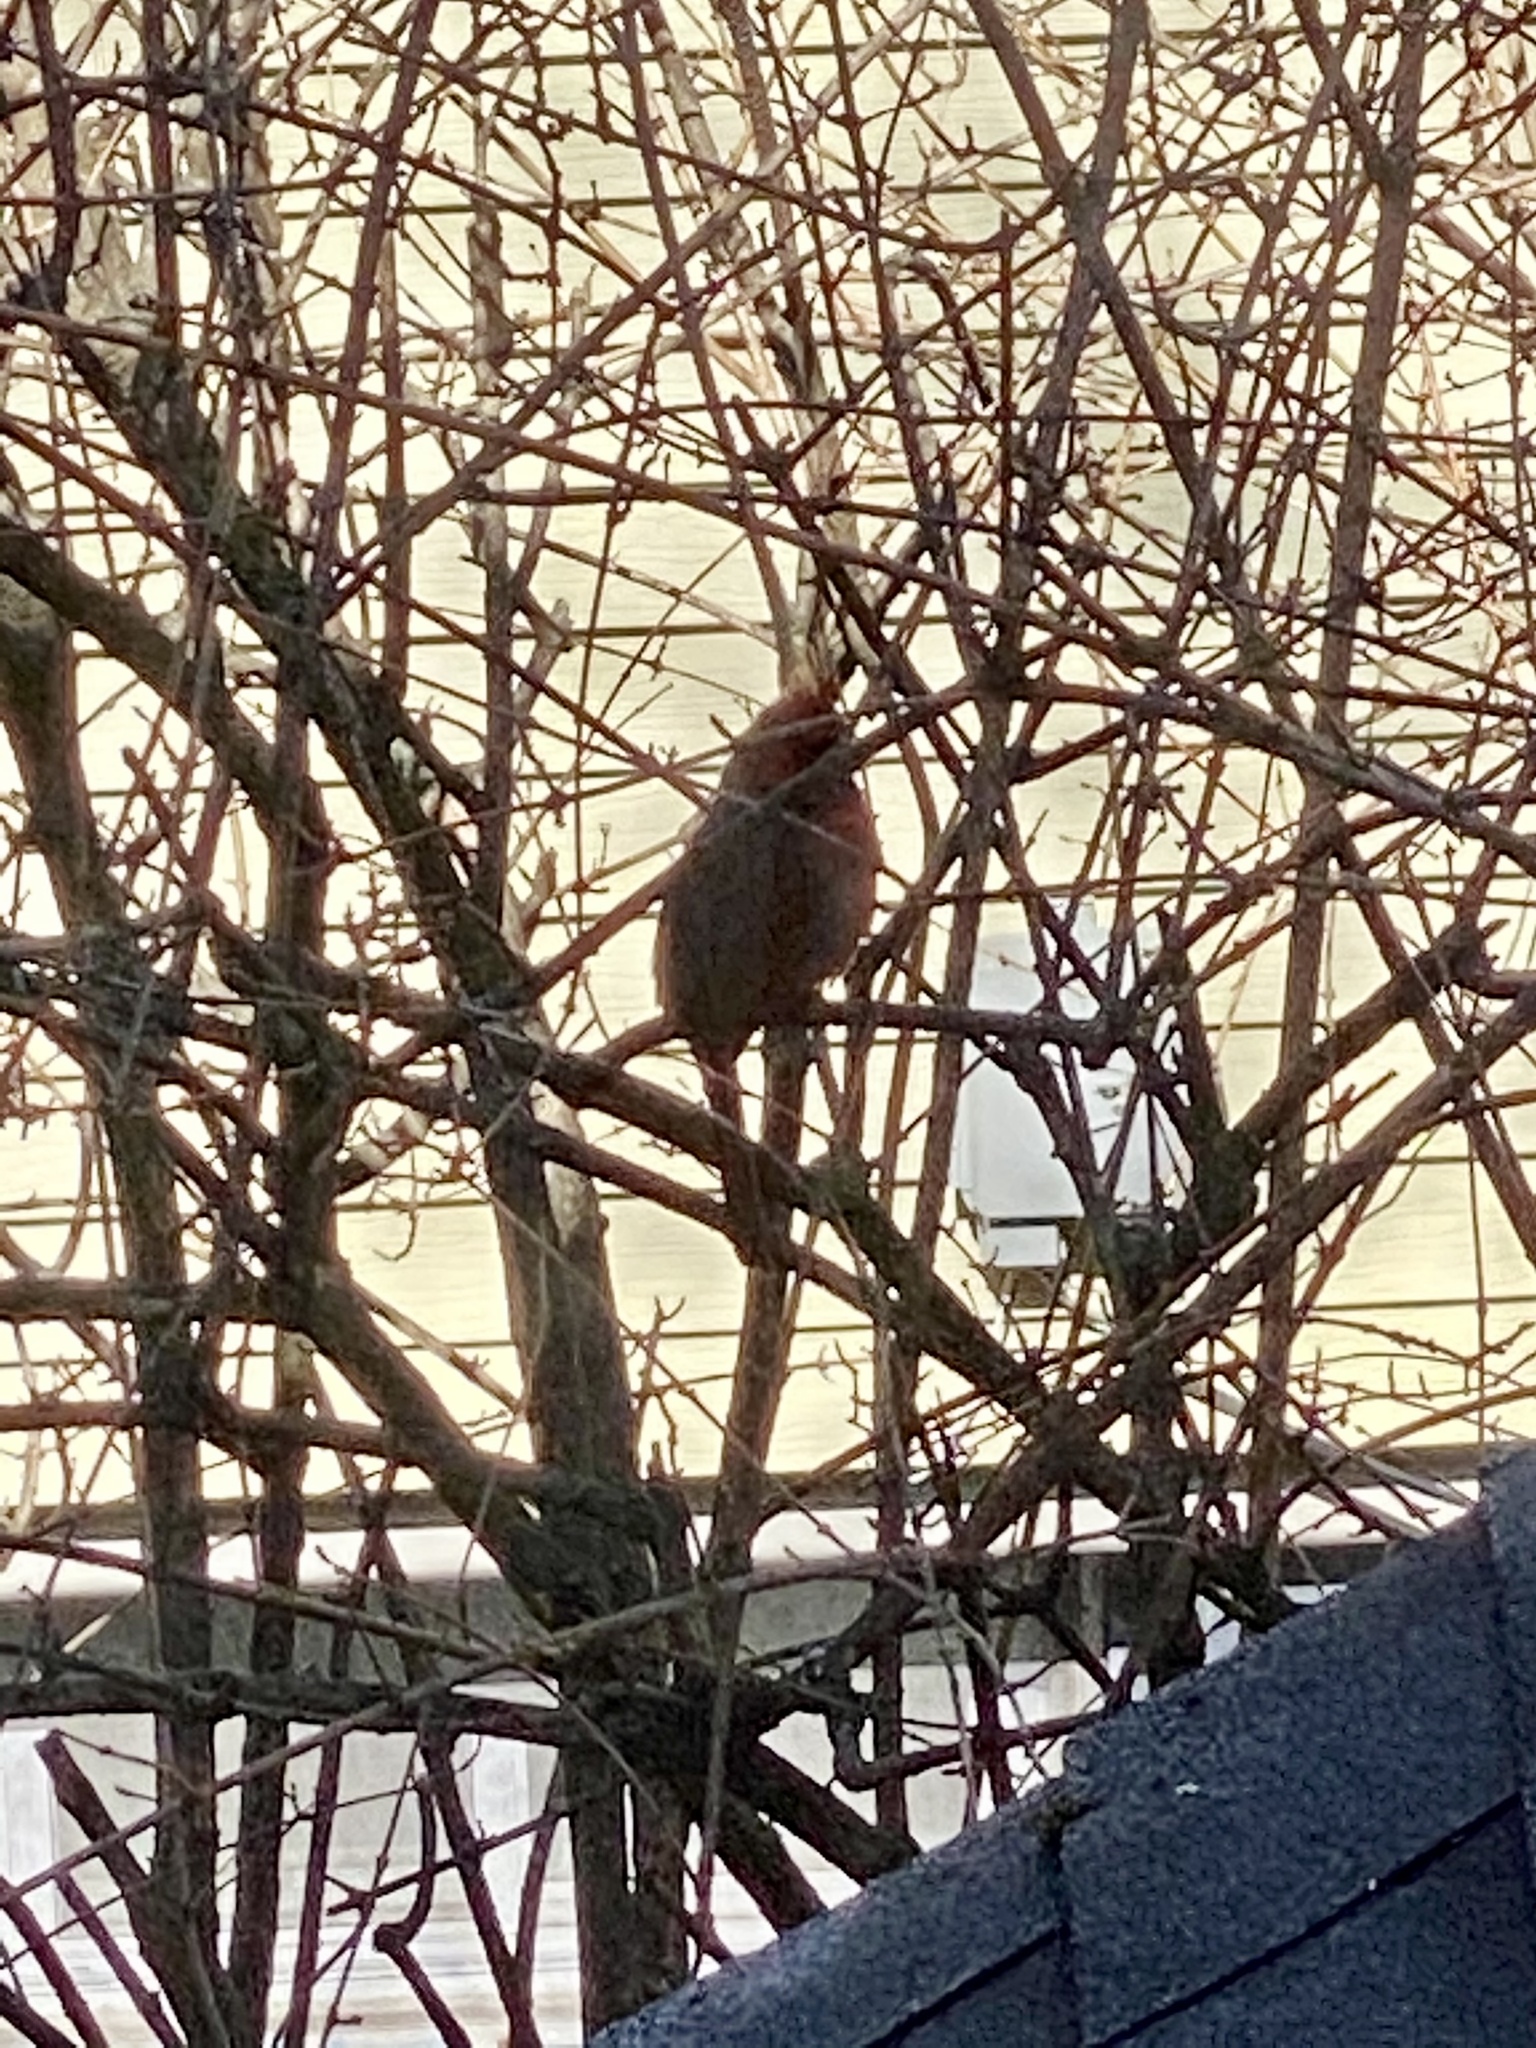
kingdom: Animalia
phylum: Chordata
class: Aves
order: Passeriformes
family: Cardinalidae
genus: Cardinalis
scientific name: Cardinalis cardinalis
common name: Northern cardinal
